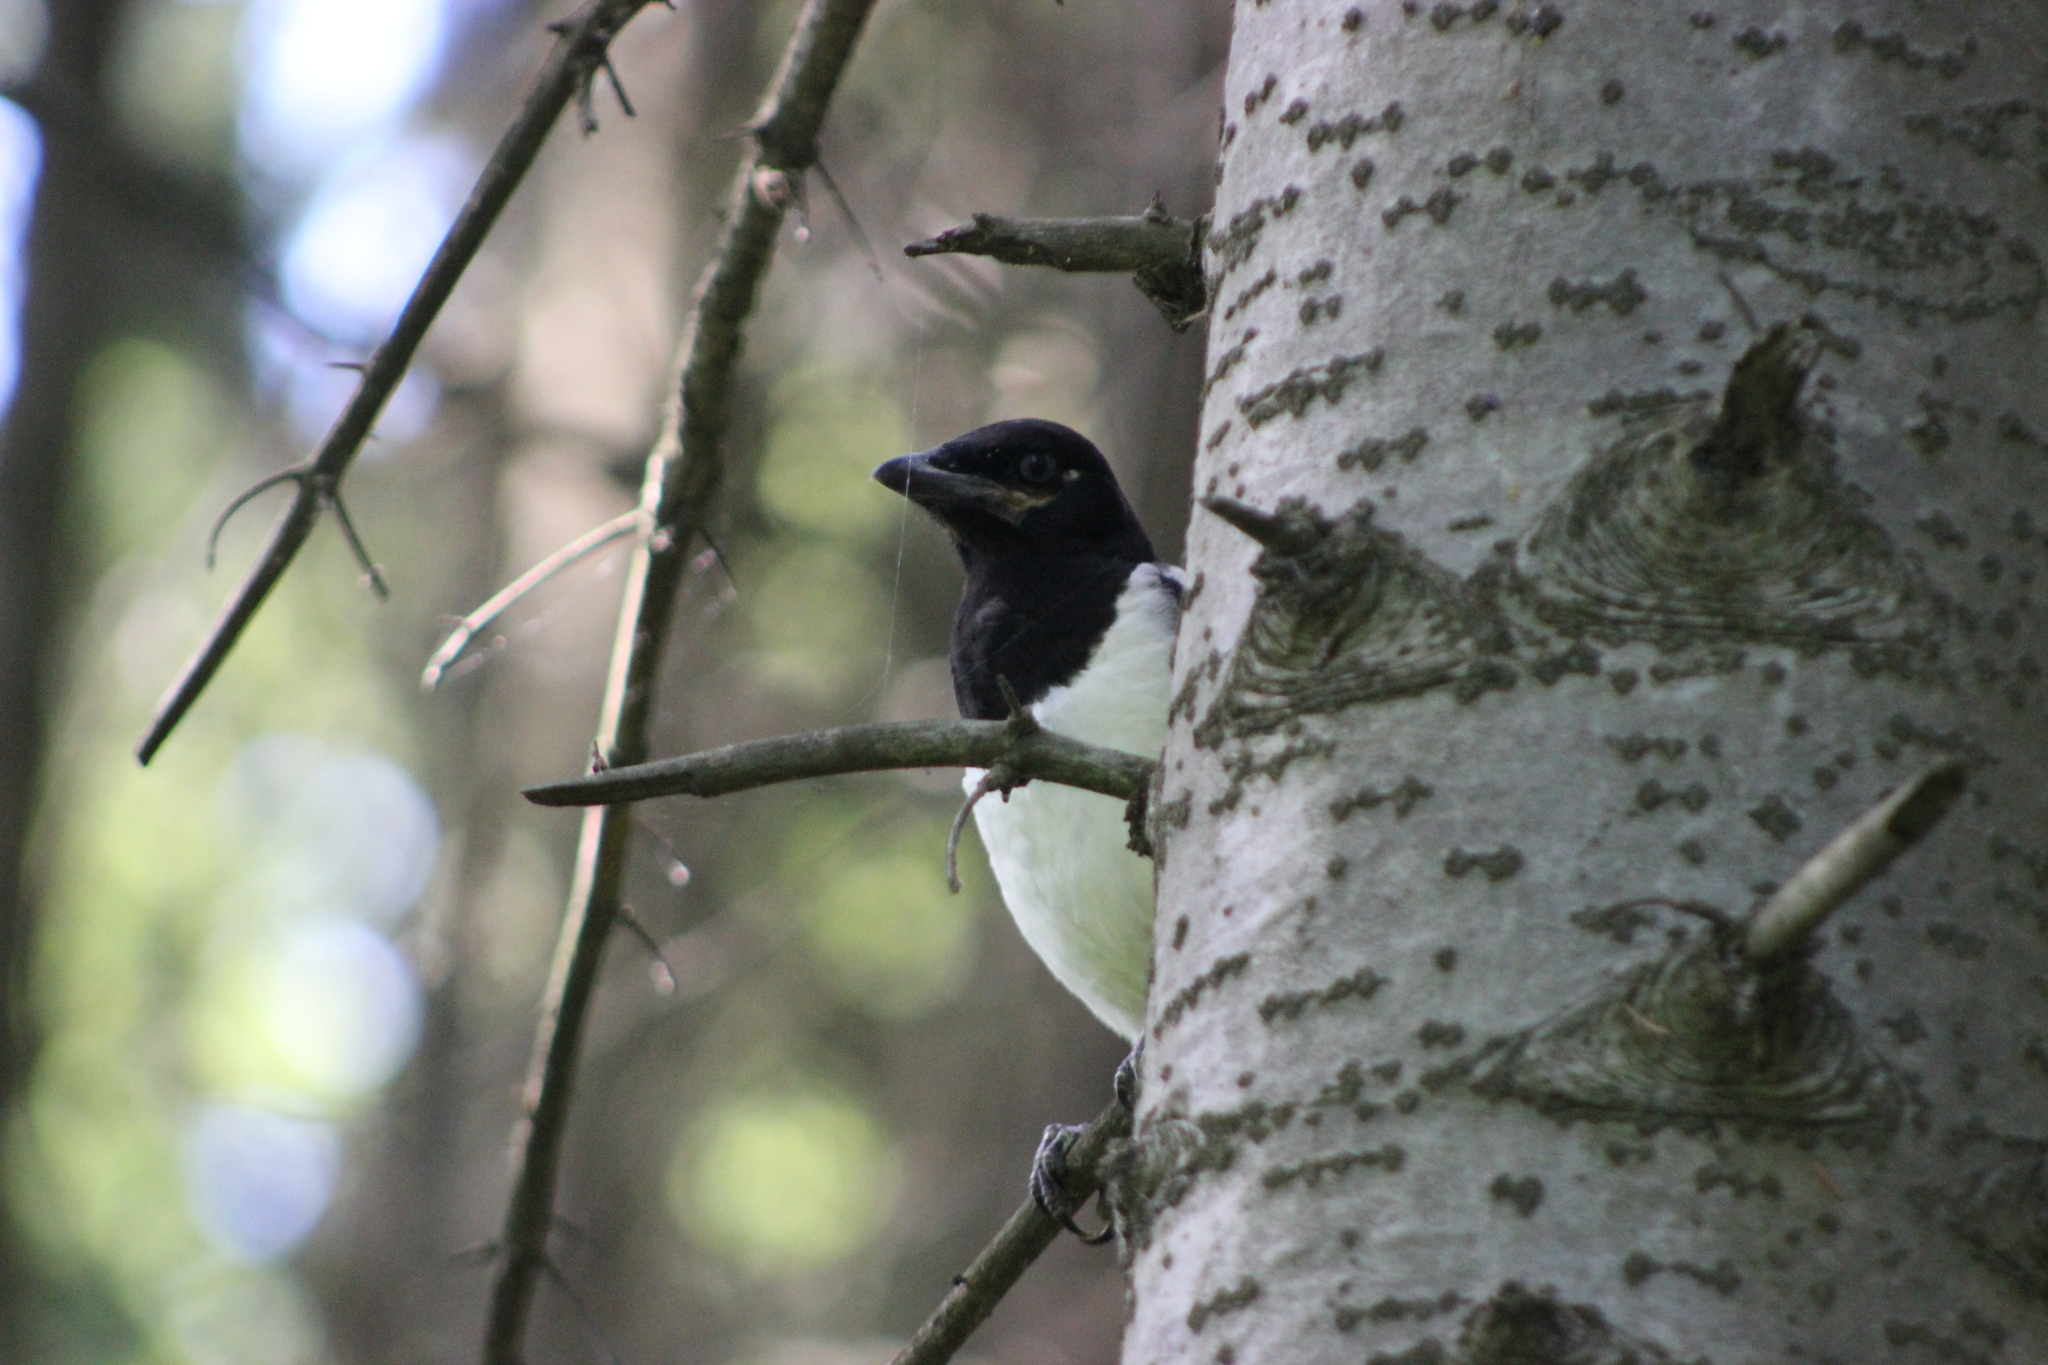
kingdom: Animalia
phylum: Chordata
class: Aves
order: Passeriformes
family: Corvidae
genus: Pica
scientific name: Pica pica
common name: Eurasian magpie
